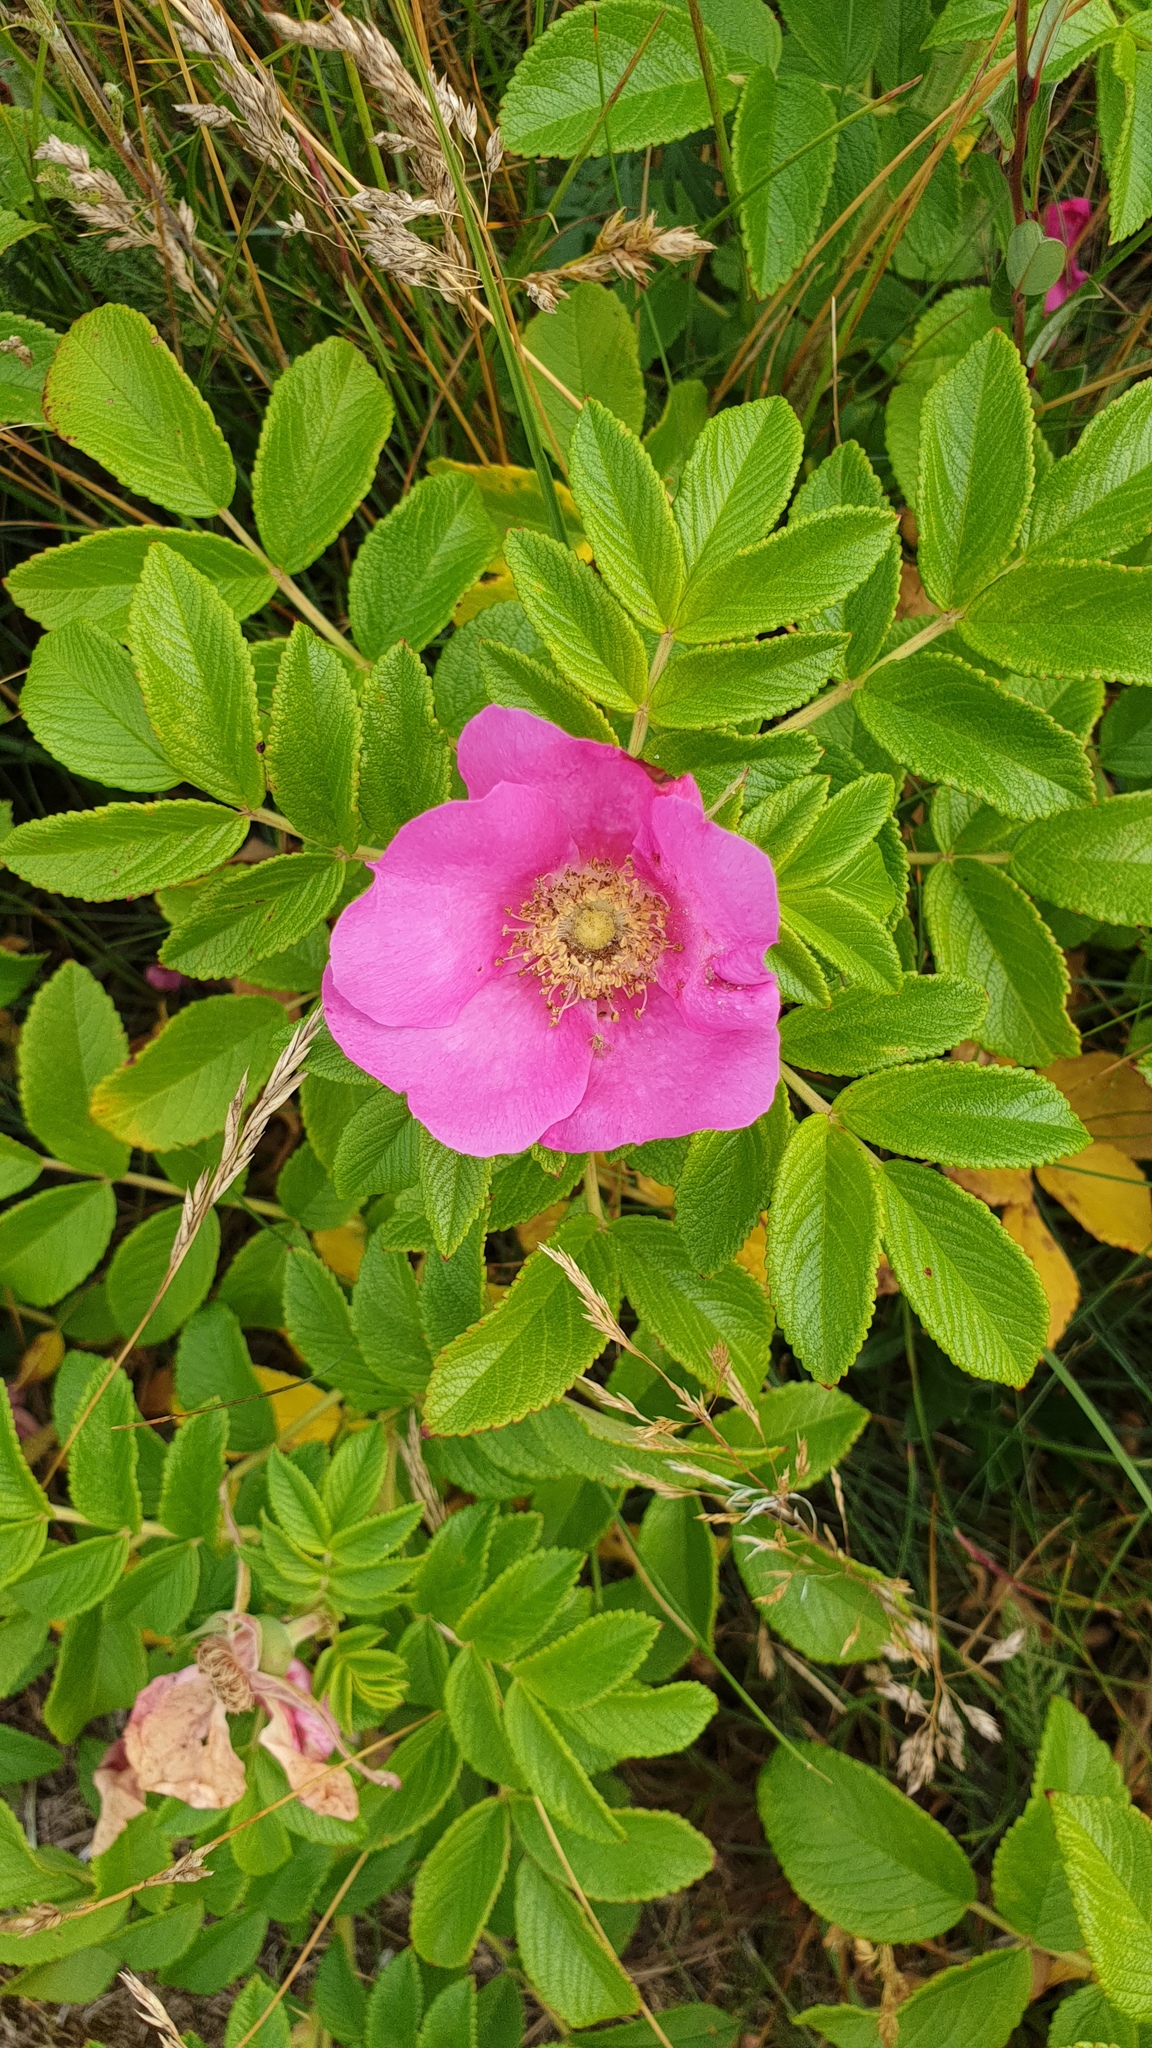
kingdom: Plantae
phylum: Tracheophyta
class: Magnoliopsida
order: Rosales
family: Rosaceae
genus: Rosa
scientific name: Rosa rugosa
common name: Japanese rose
